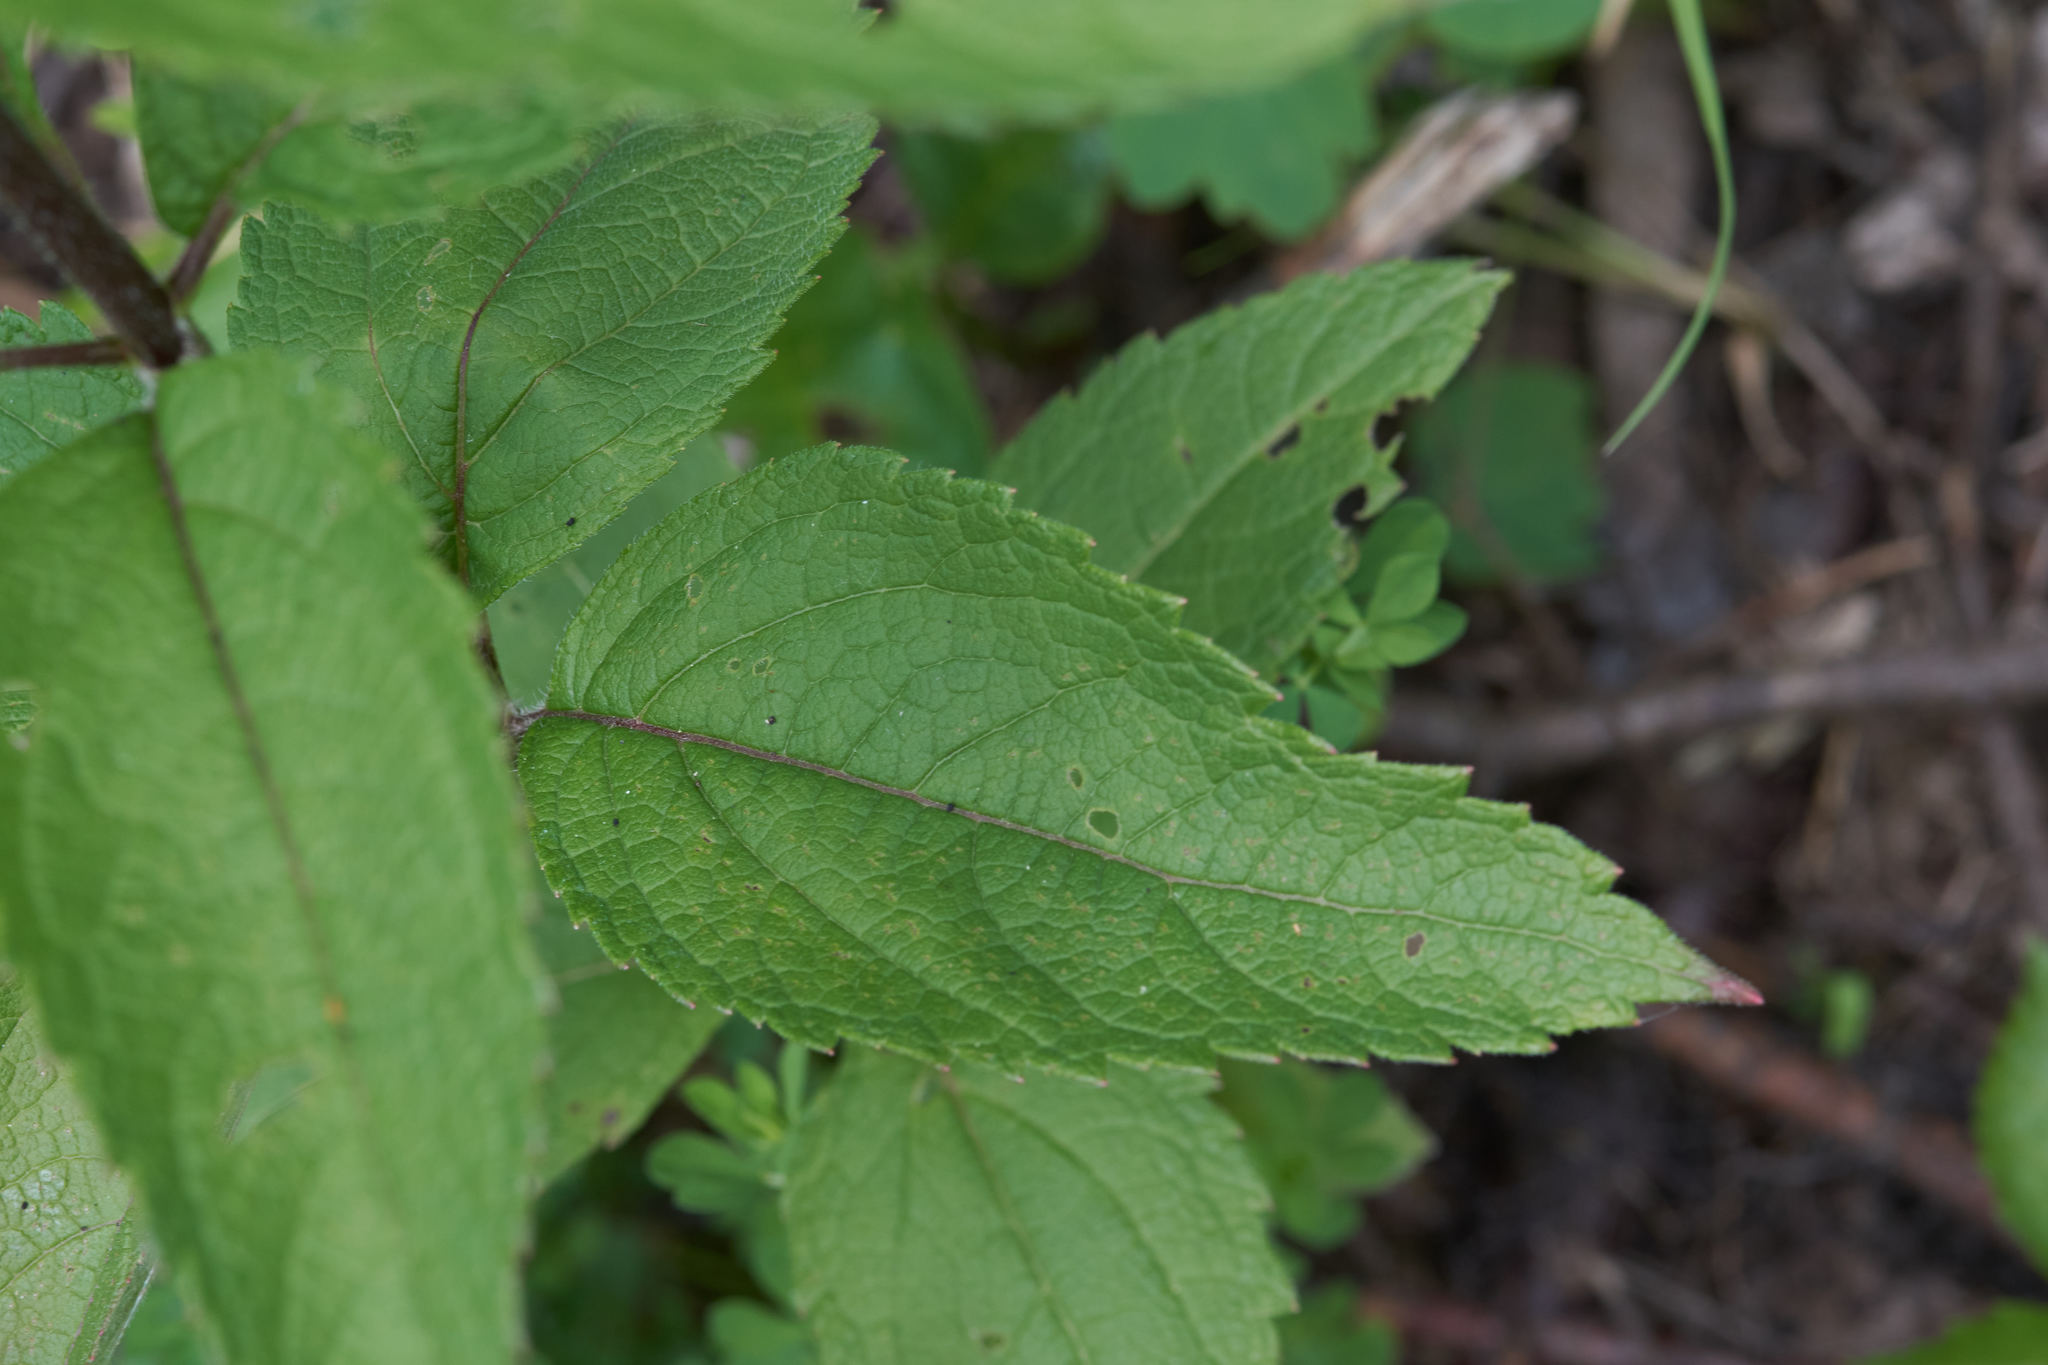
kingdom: Plantae
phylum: Tracheophyta
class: Magnoliopsida
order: Asterales
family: Asteraceae
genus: Eutrochium
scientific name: Eutrochium maculatum
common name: Spotted joe pye weed
